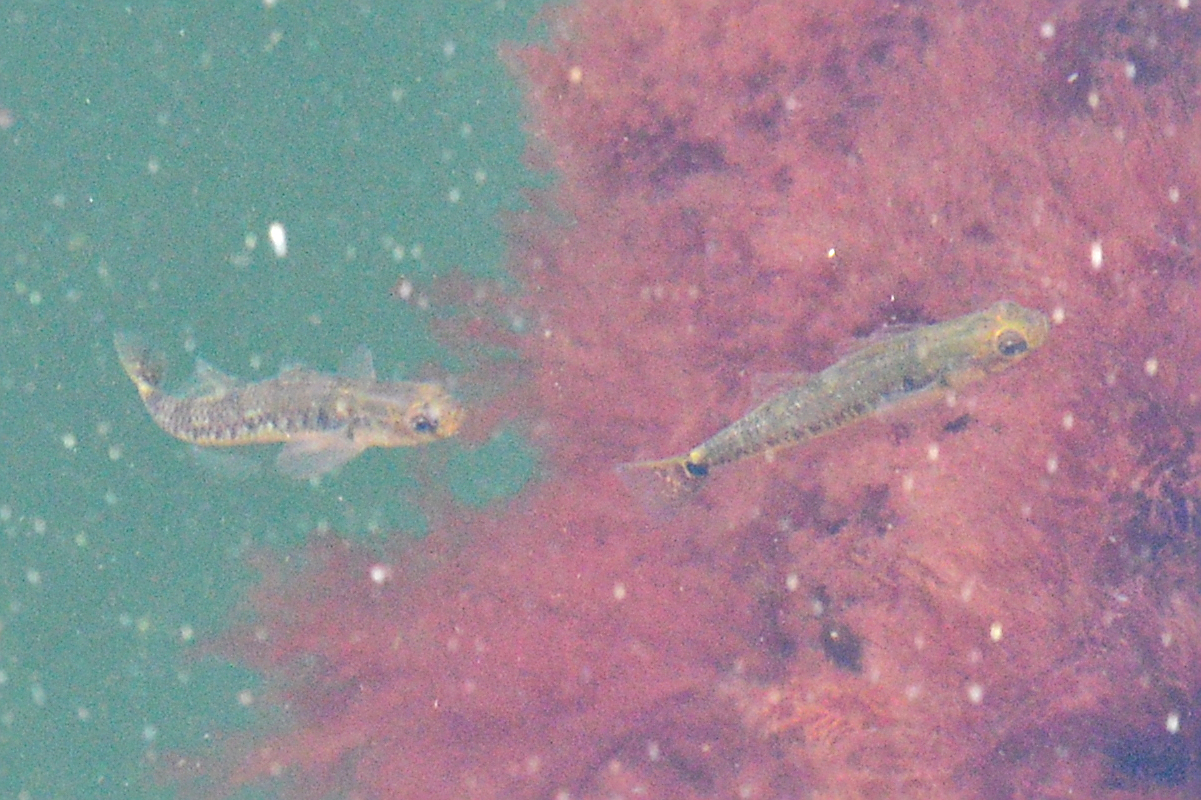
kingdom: Animalia
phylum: Chordata
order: Perciformes
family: Gobiidae
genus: Gobiusculus
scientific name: Gobiusculus flavescens
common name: Two-spotted goby
